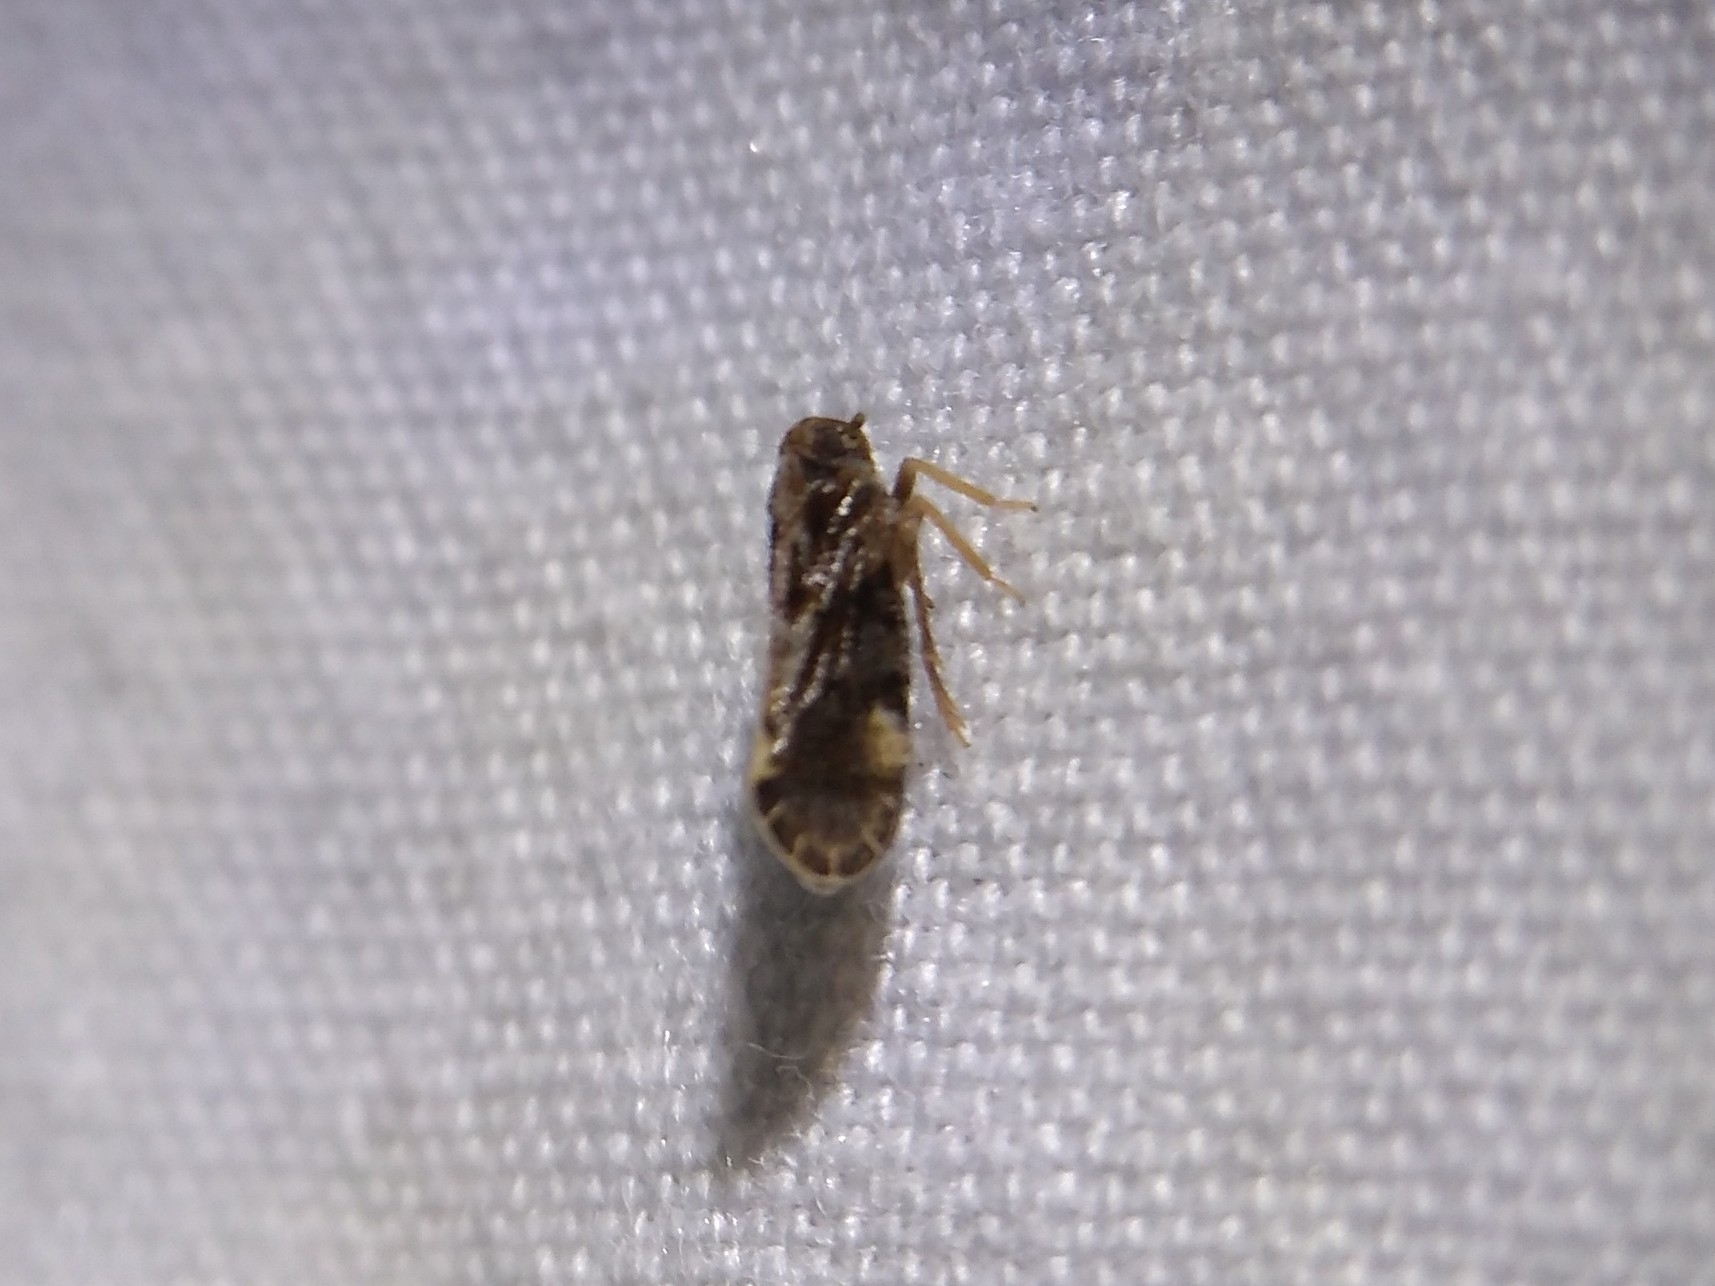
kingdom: Animalia
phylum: Arthropoda
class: Insecta
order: Hemiptera
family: Cixiidae
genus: Monorachis
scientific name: Monorachis sordulentus
